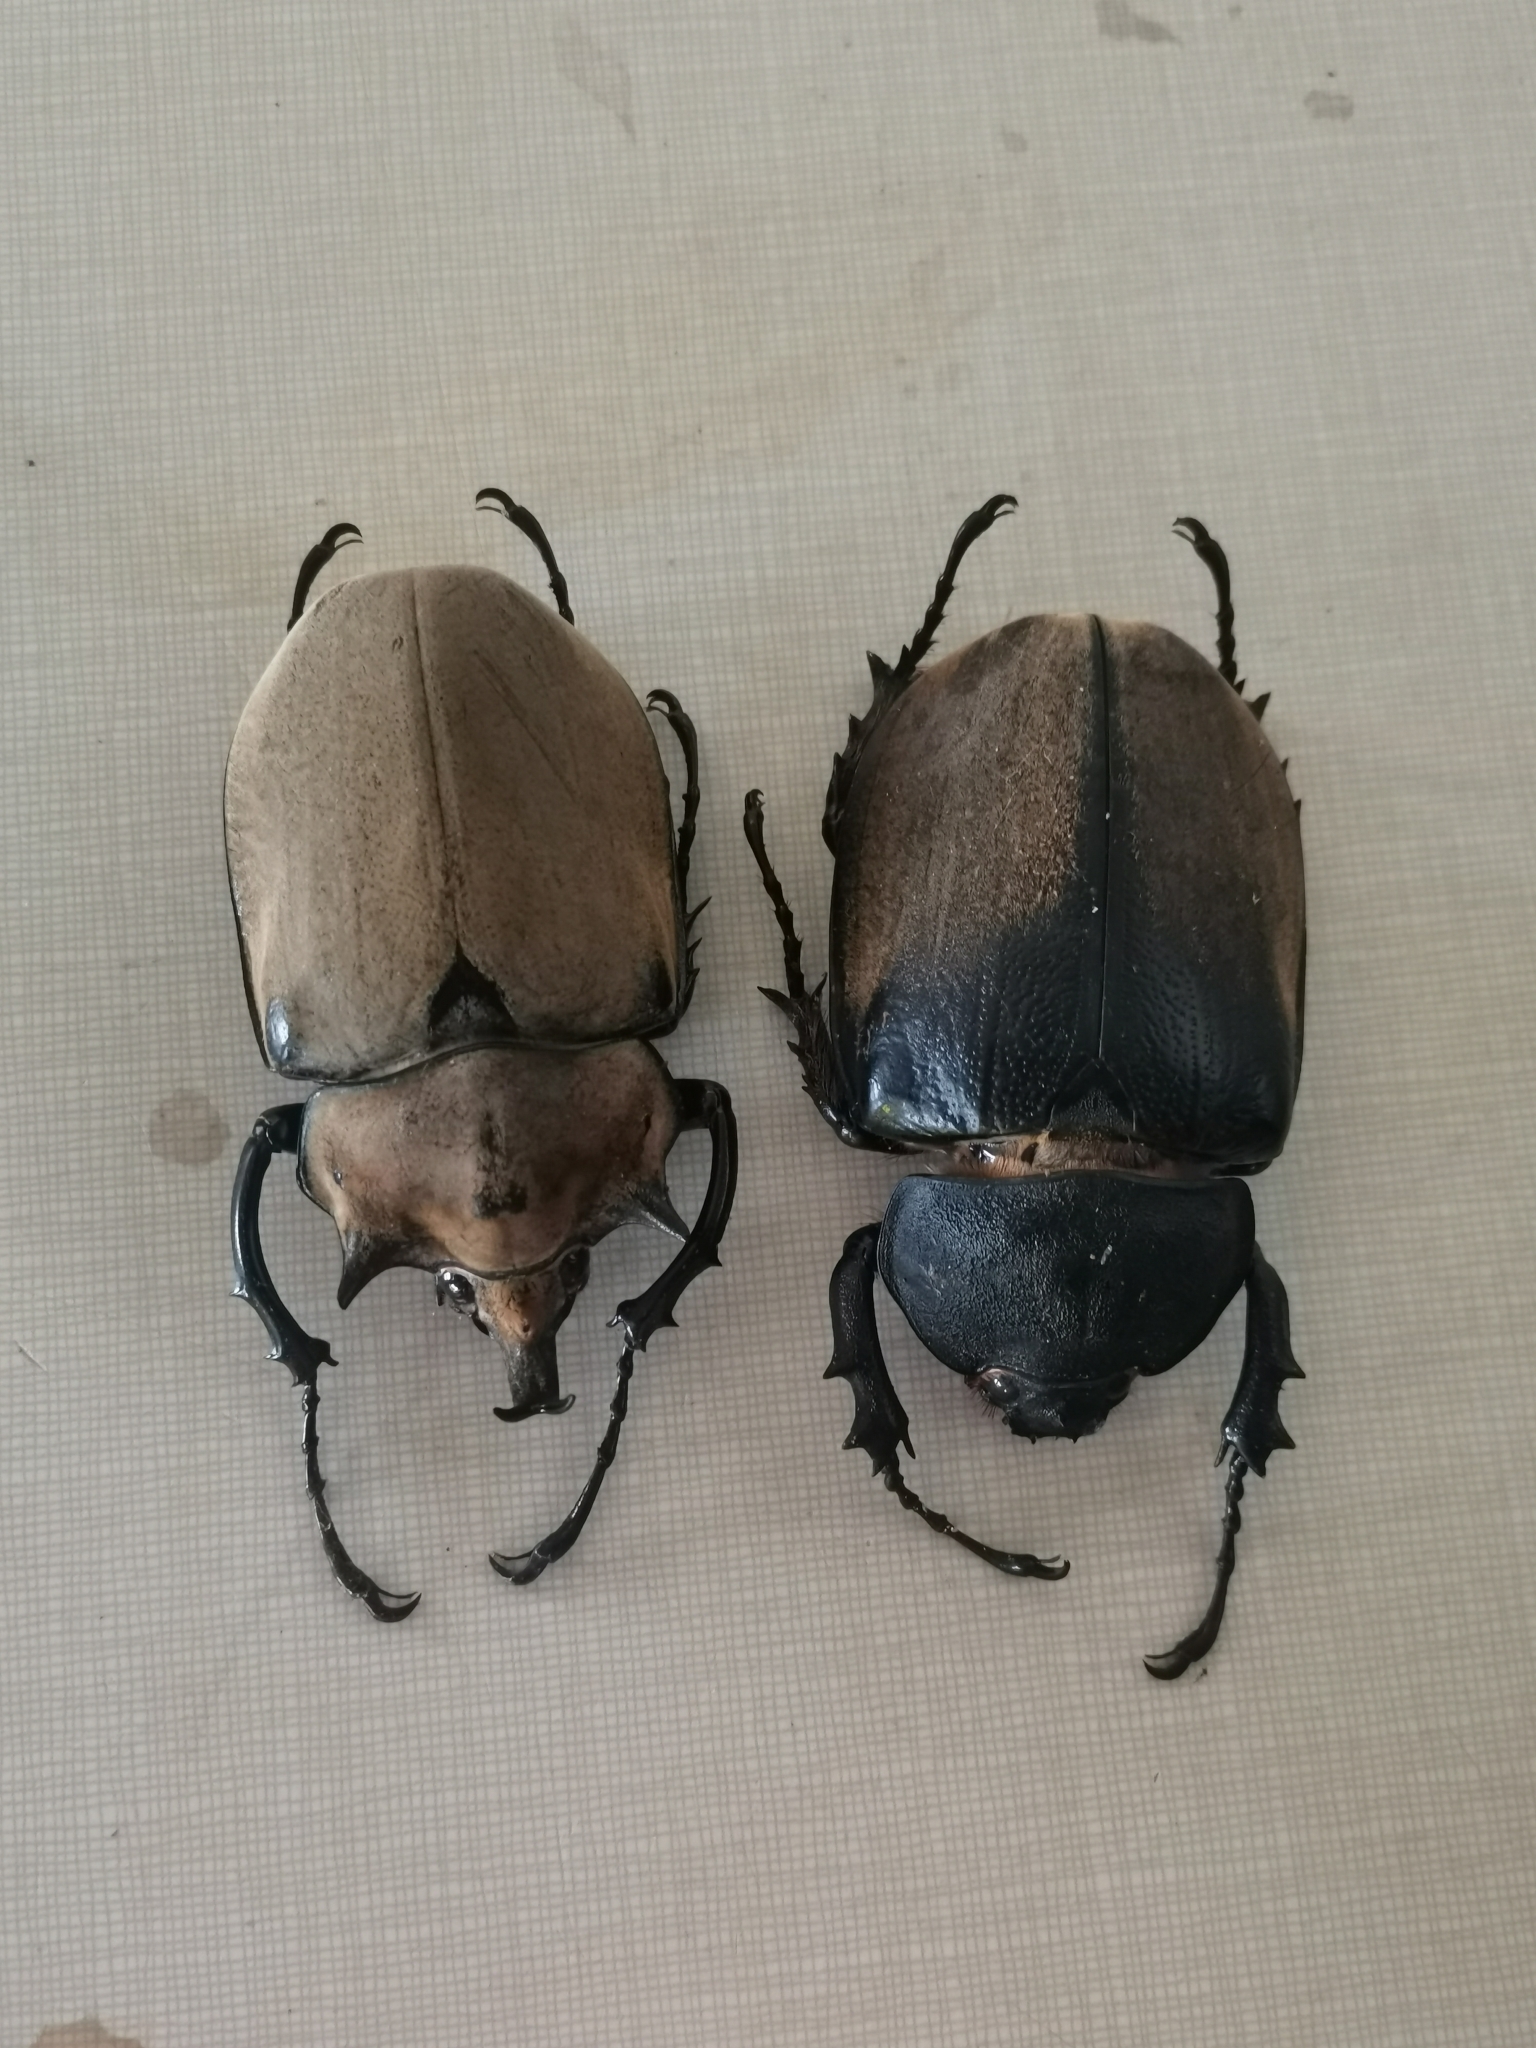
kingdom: Animalia
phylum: Arthropoda
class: Insecta
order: Coleoptera
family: Scarabaeidae
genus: Megasoma
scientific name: Megasoma elephas
